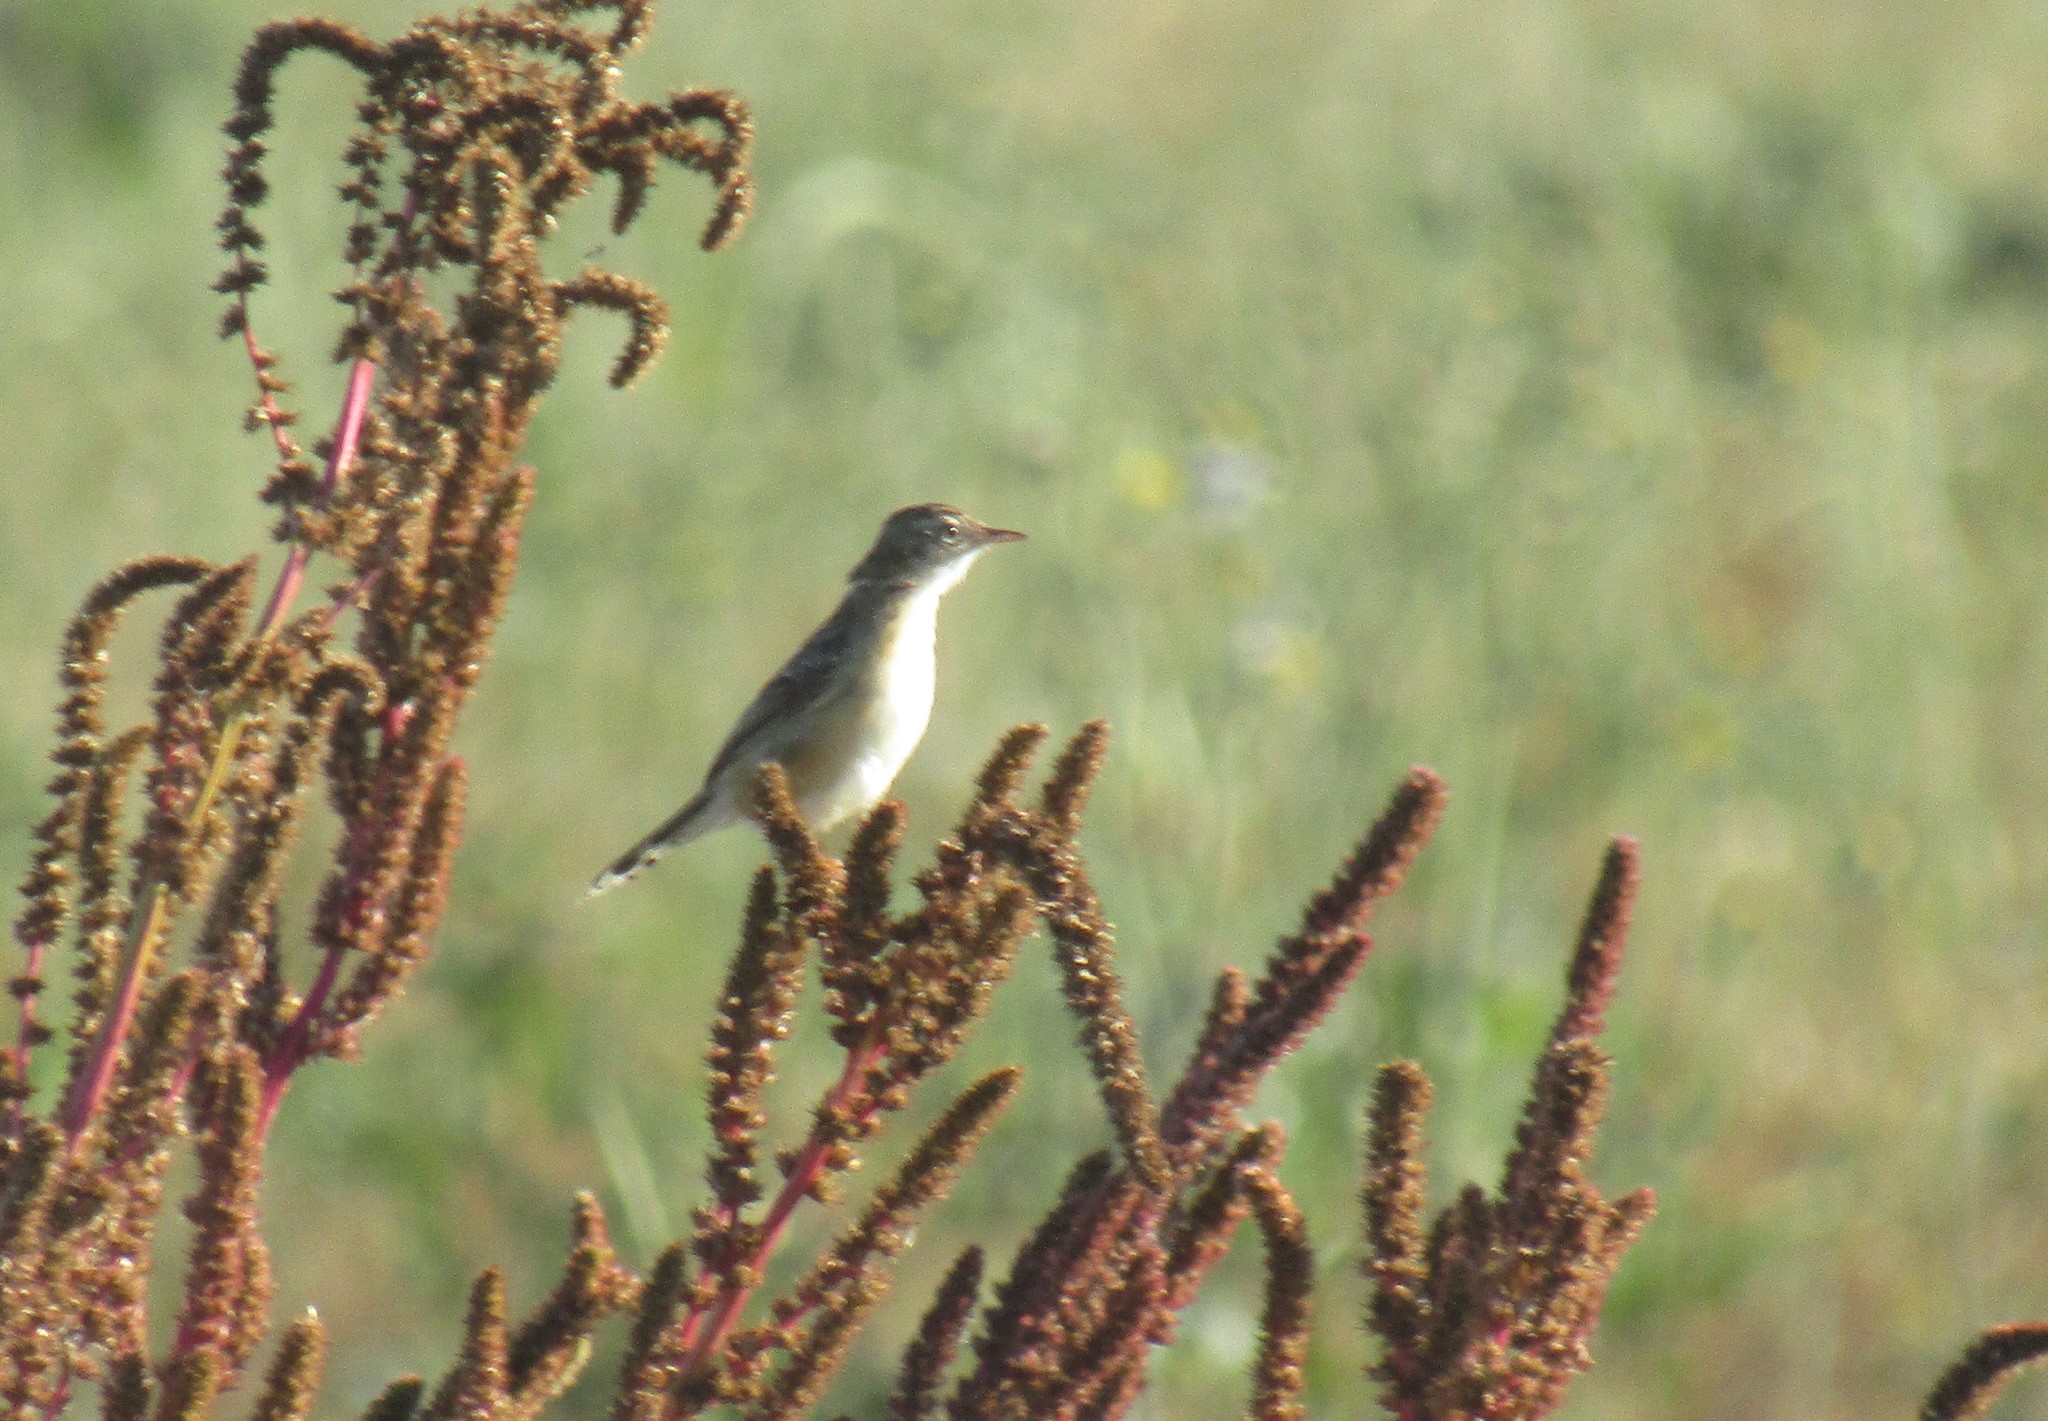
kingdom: Animalia
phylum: Chordata
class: Aves
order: Passeriformes
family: Cisticolidae
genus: Cisticola
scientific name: Cisticola juncidis
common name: Zitting cisticola
